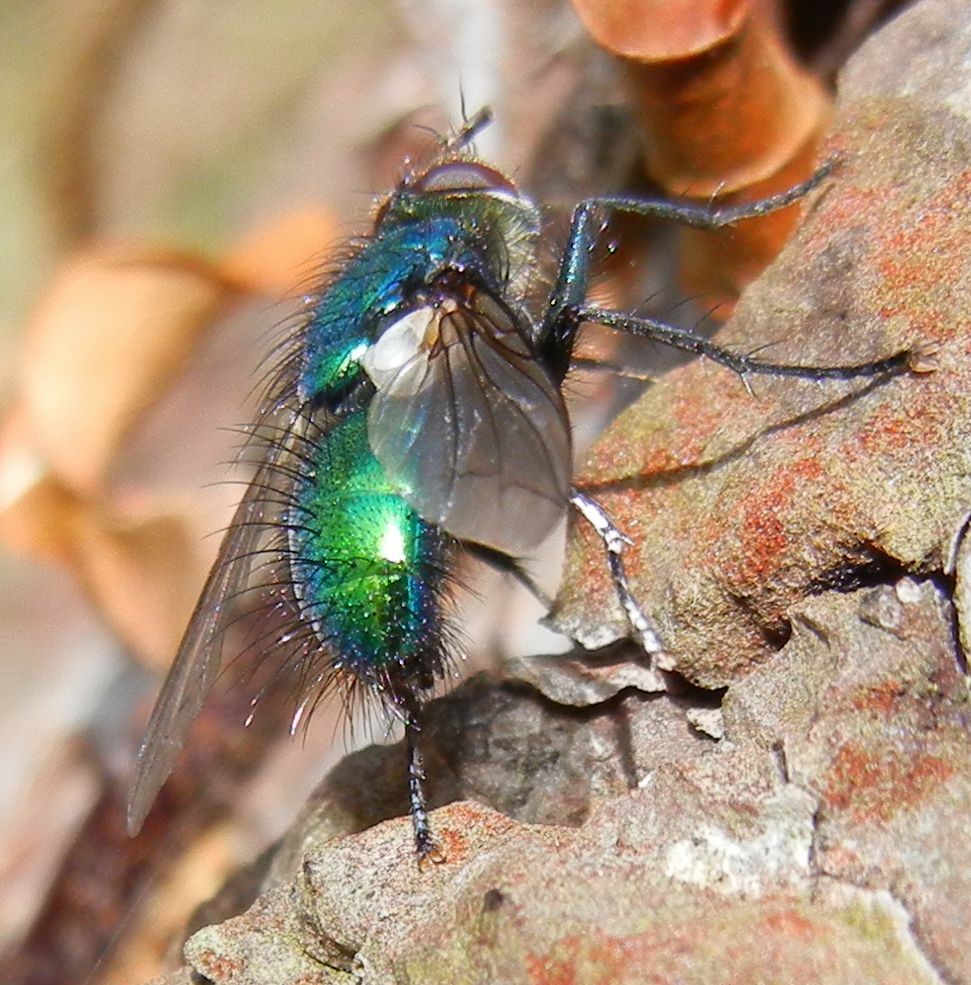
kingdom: Animalia
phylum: Arthropoda
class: Insecta
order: Diptera
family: Tachinidae
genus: Gymnocheta
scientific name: Gymnocheta viridis
